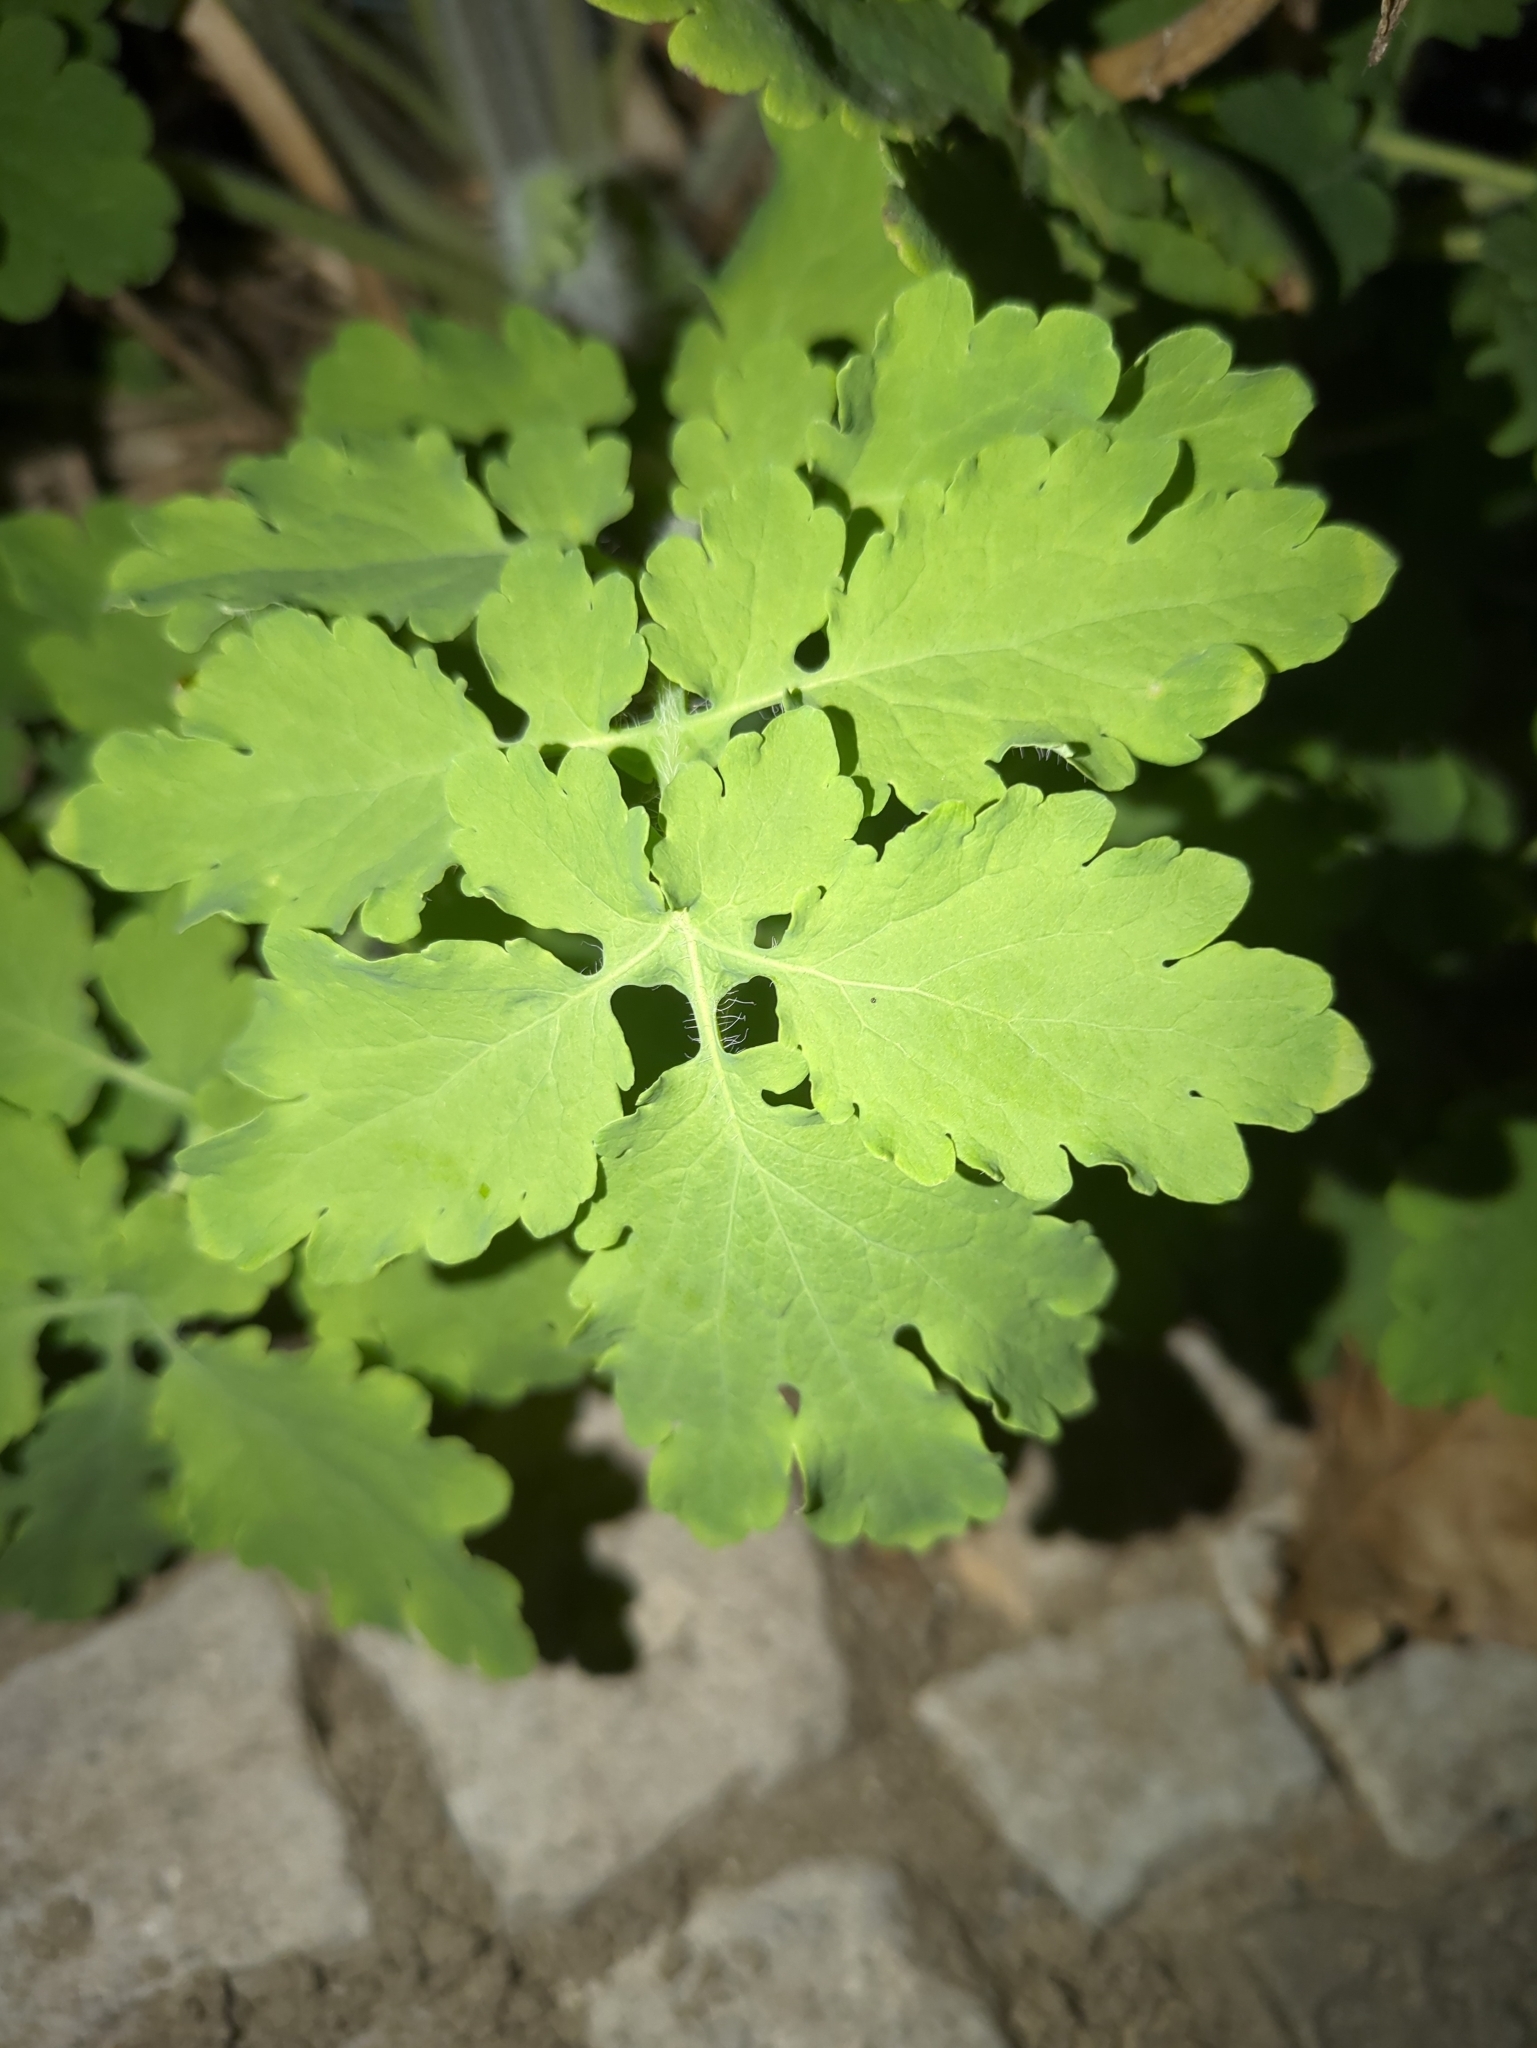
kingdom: Plantae
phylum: Tracheophyta
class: Magnoliopsida
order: Ranunculales
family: Papaveraceae
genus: Chelidonium
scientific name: Chelidonium majus
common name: Greater celandine
